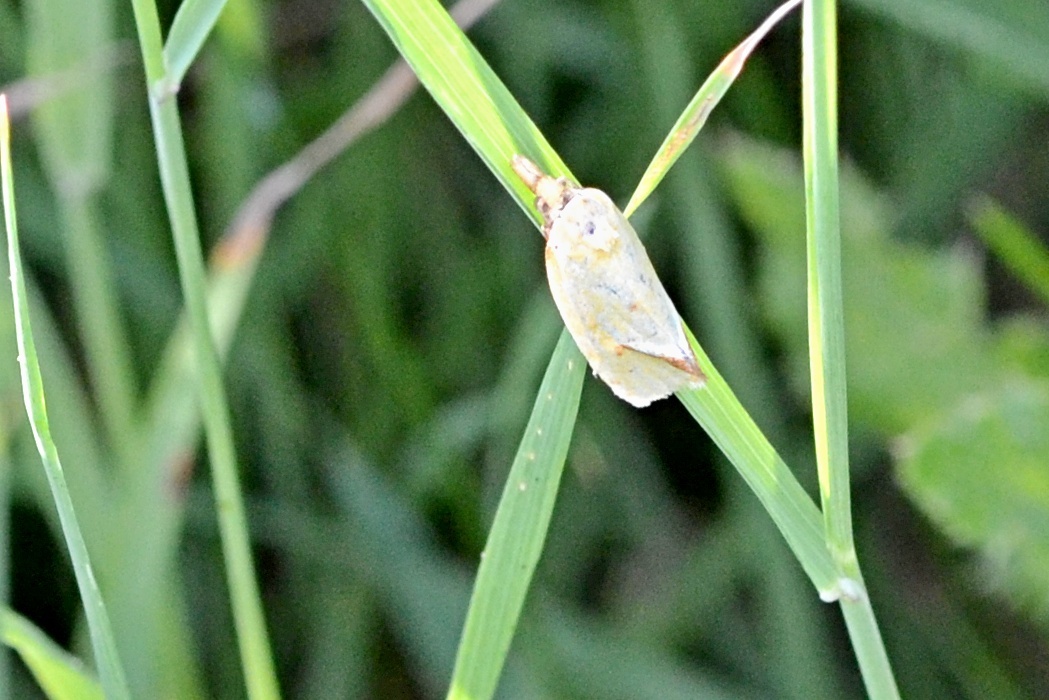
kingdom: Animalia
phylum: Arthropoda
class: Insecta
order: Lepidoptera
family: Tortricidae
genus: Agapeta
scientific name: Agapeta hamana
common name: Common yellow conch
